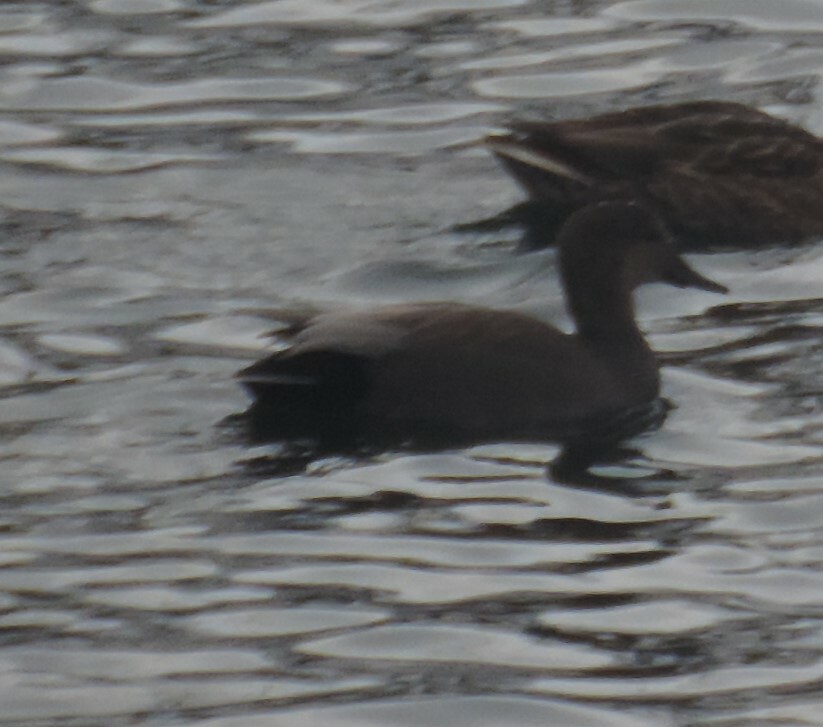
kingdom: Animalia
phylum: Chordata
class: Aves
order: Anseriformes
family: Anatidae
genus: Mareca
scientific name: Mareca strepera
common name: Gadwall
